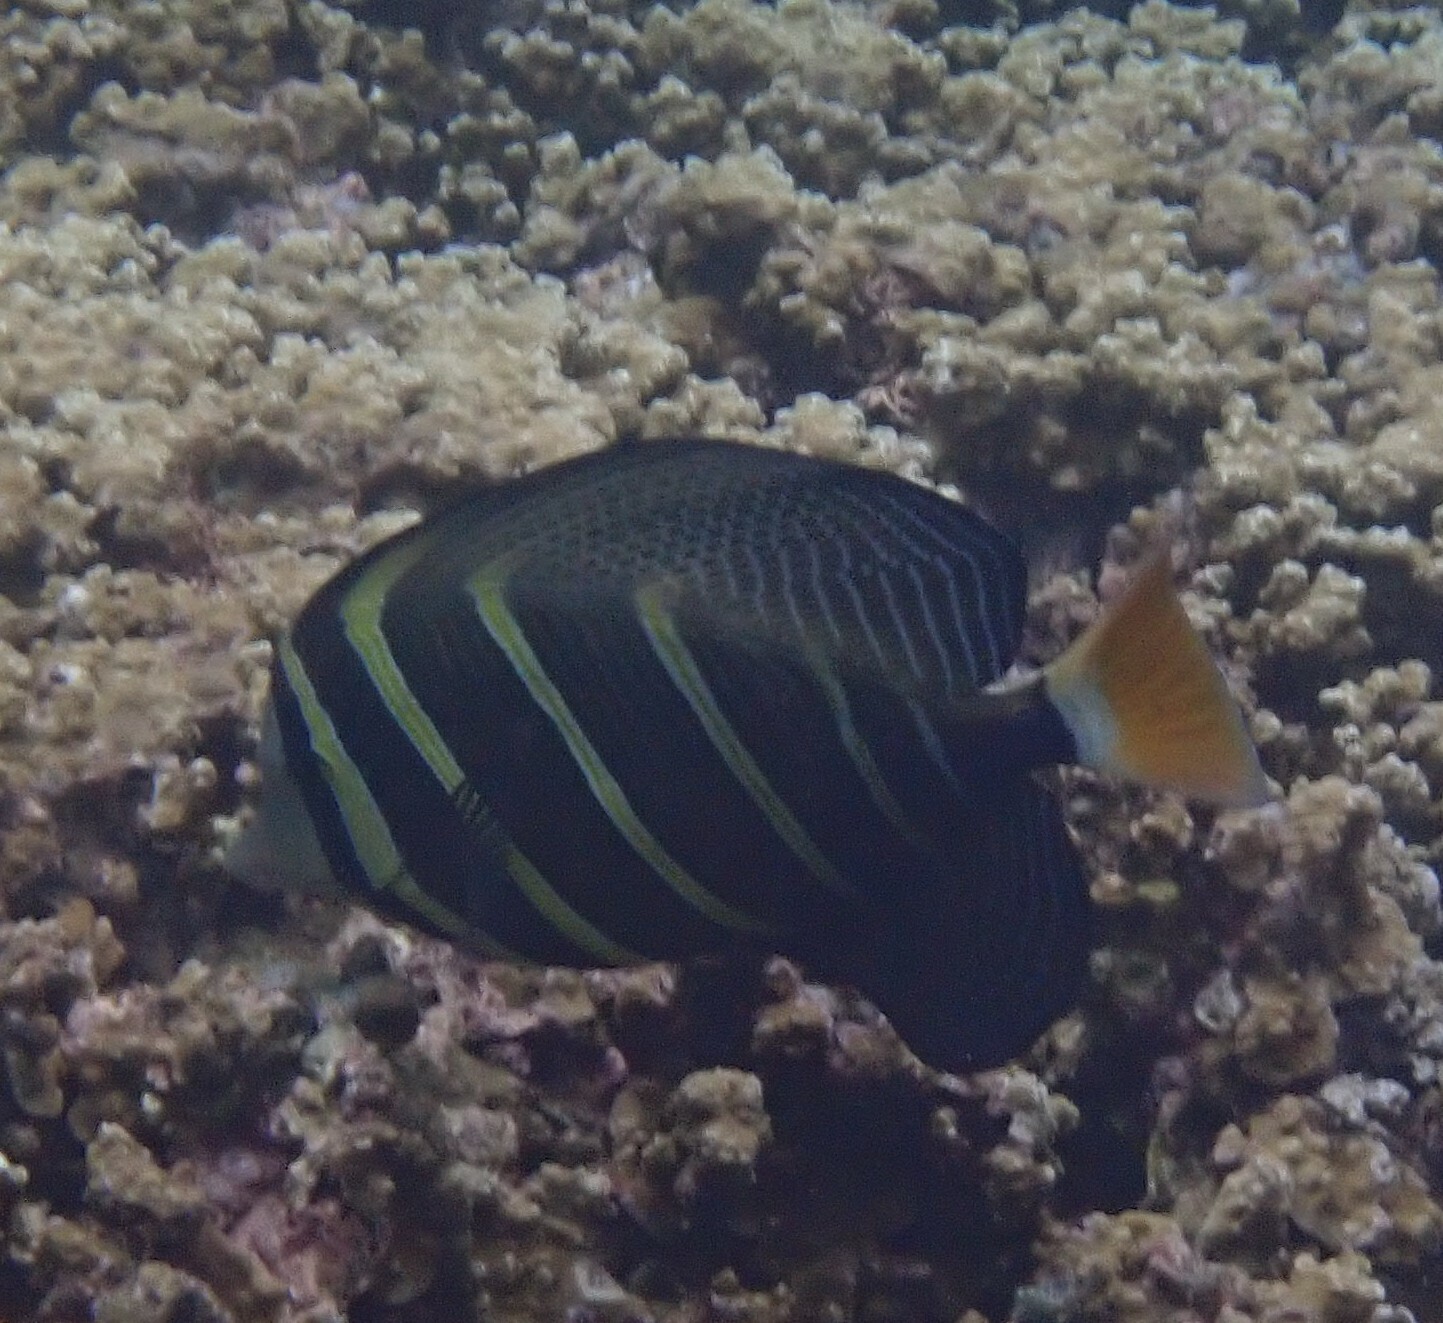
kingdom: Animalia
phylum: Chordata
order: Perciformes
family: Acanthuridae
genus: Zebrasoma
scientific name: Zebrasoma veliferum
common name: Sailfin surgeonfish
